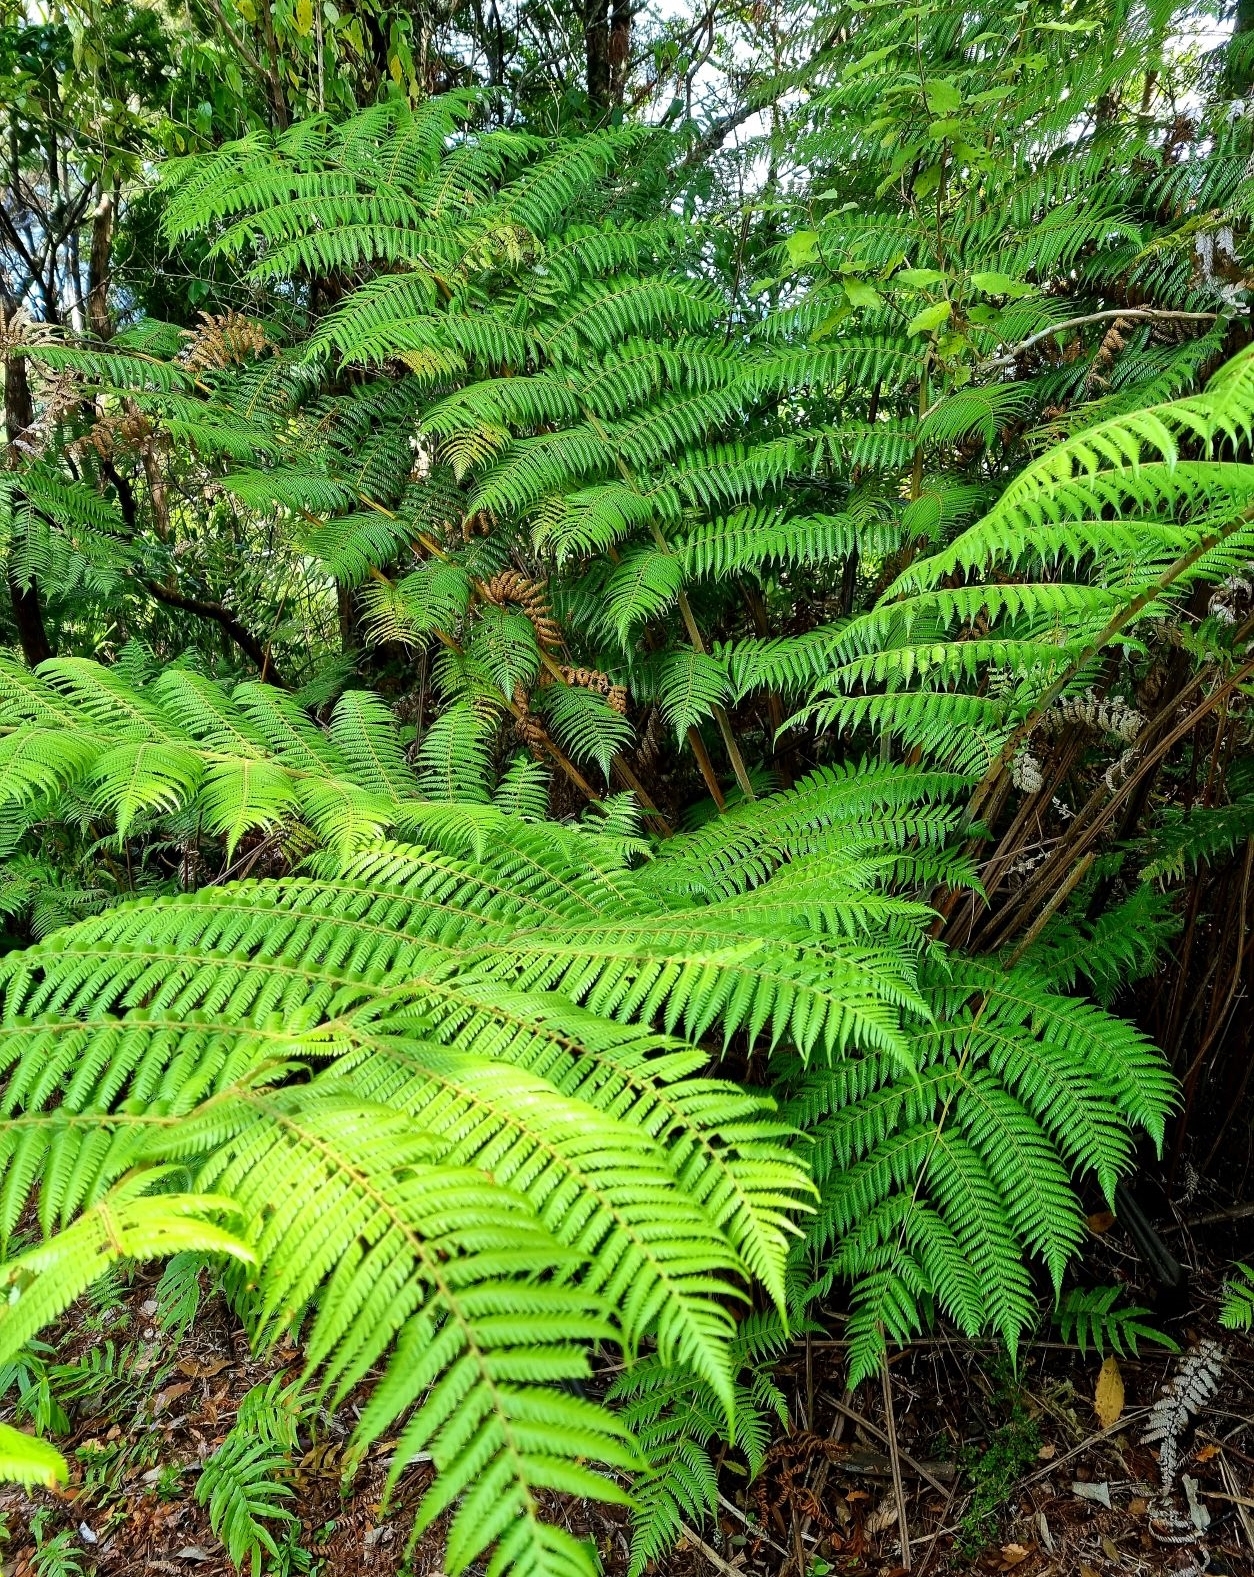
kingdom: Plantae
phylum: Tracheophyta
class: Polypodiopsida
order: Cyatheales
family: Cyatheaceae
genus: Alsophila
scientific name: Alsophila dealbata
